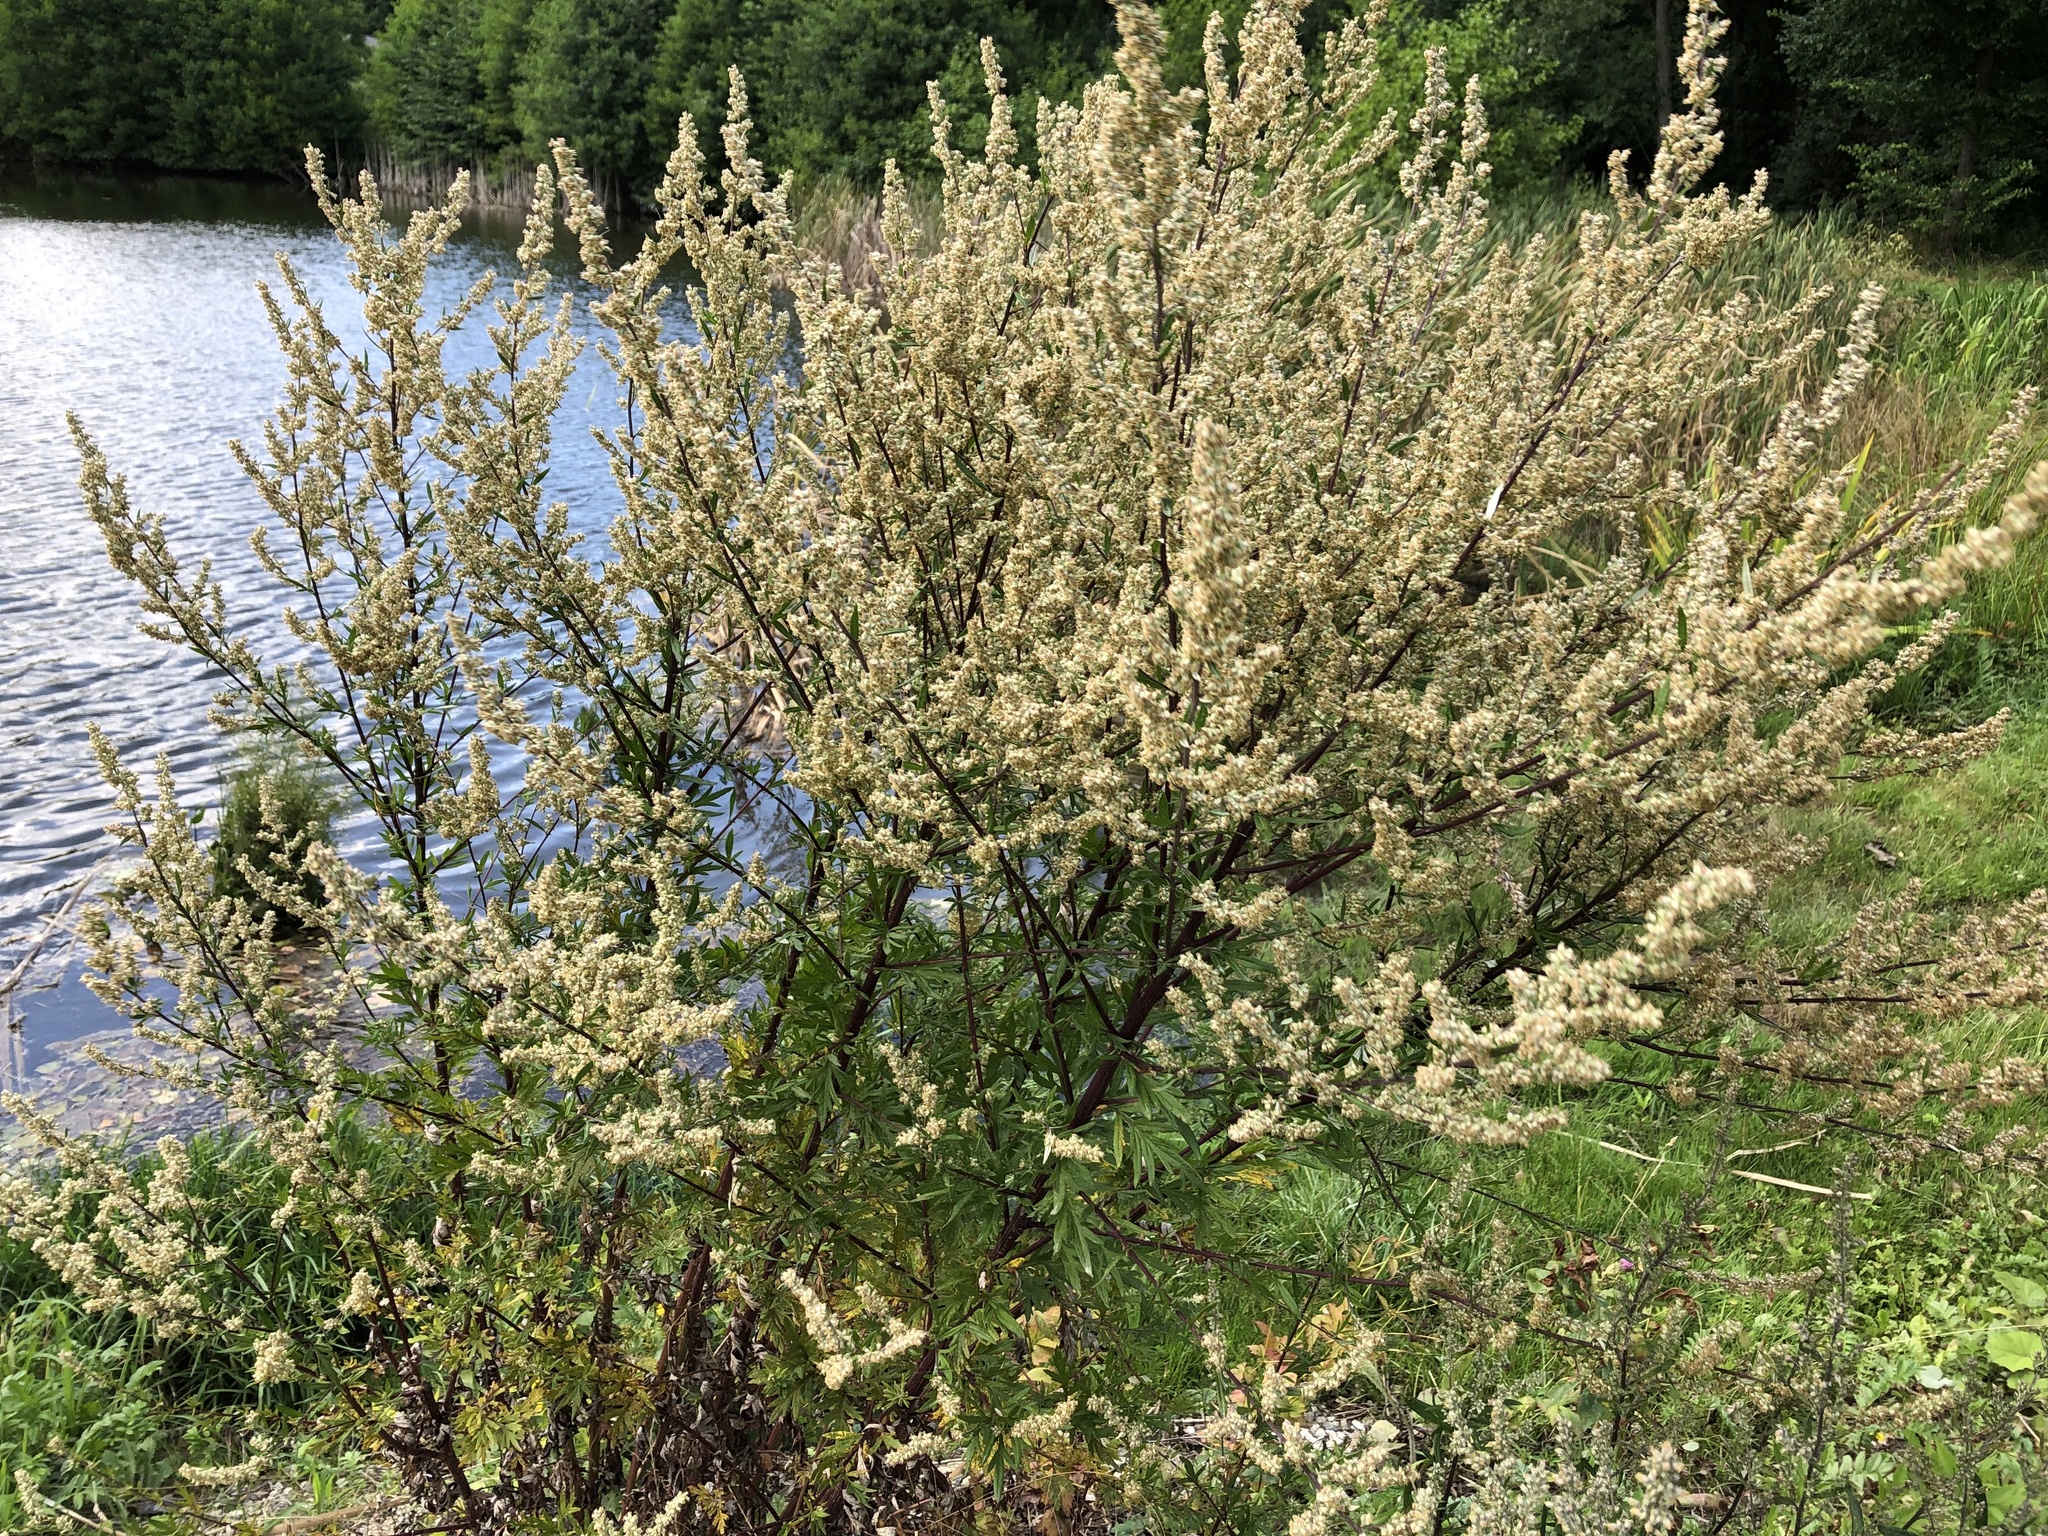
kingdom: Plantae
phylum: Tracheophyta
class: Magnoliopsida
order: Asterales
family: Asteraceae
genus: Artemisia
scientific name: Artemisia vulgaris
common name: Mugwort
